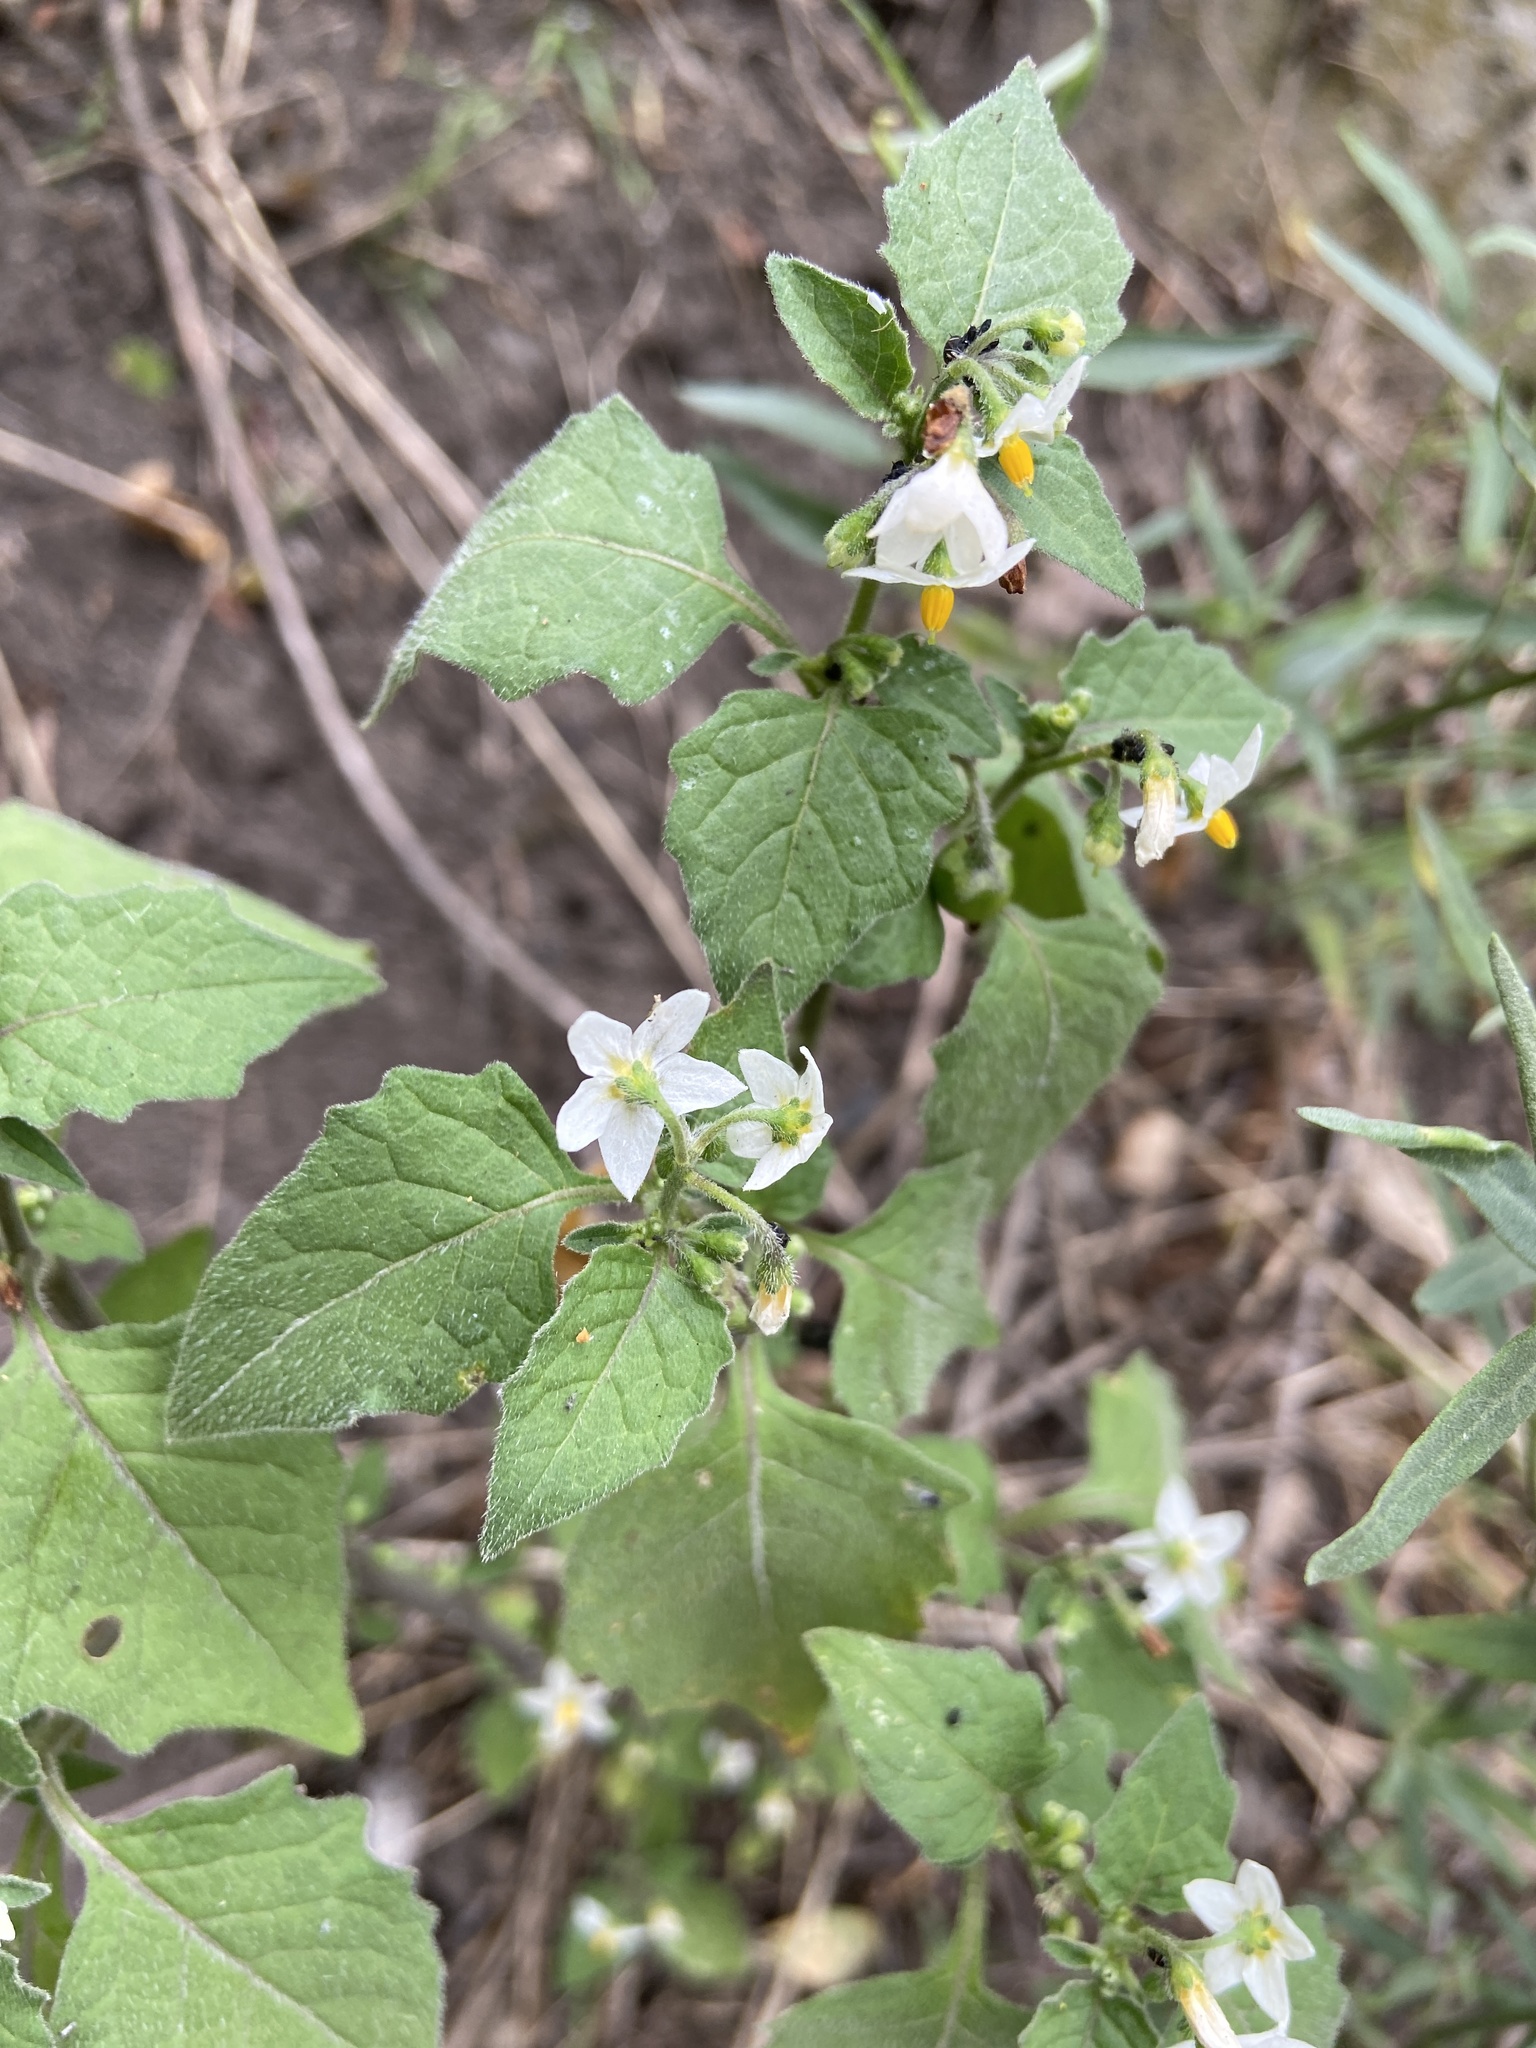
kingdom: Plantae
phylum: Tracheophyta
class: Magnoliopsida
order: Solanales
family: Solanaceae
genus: Solanum
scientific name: Solanum nigrum
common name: Black nightshade
